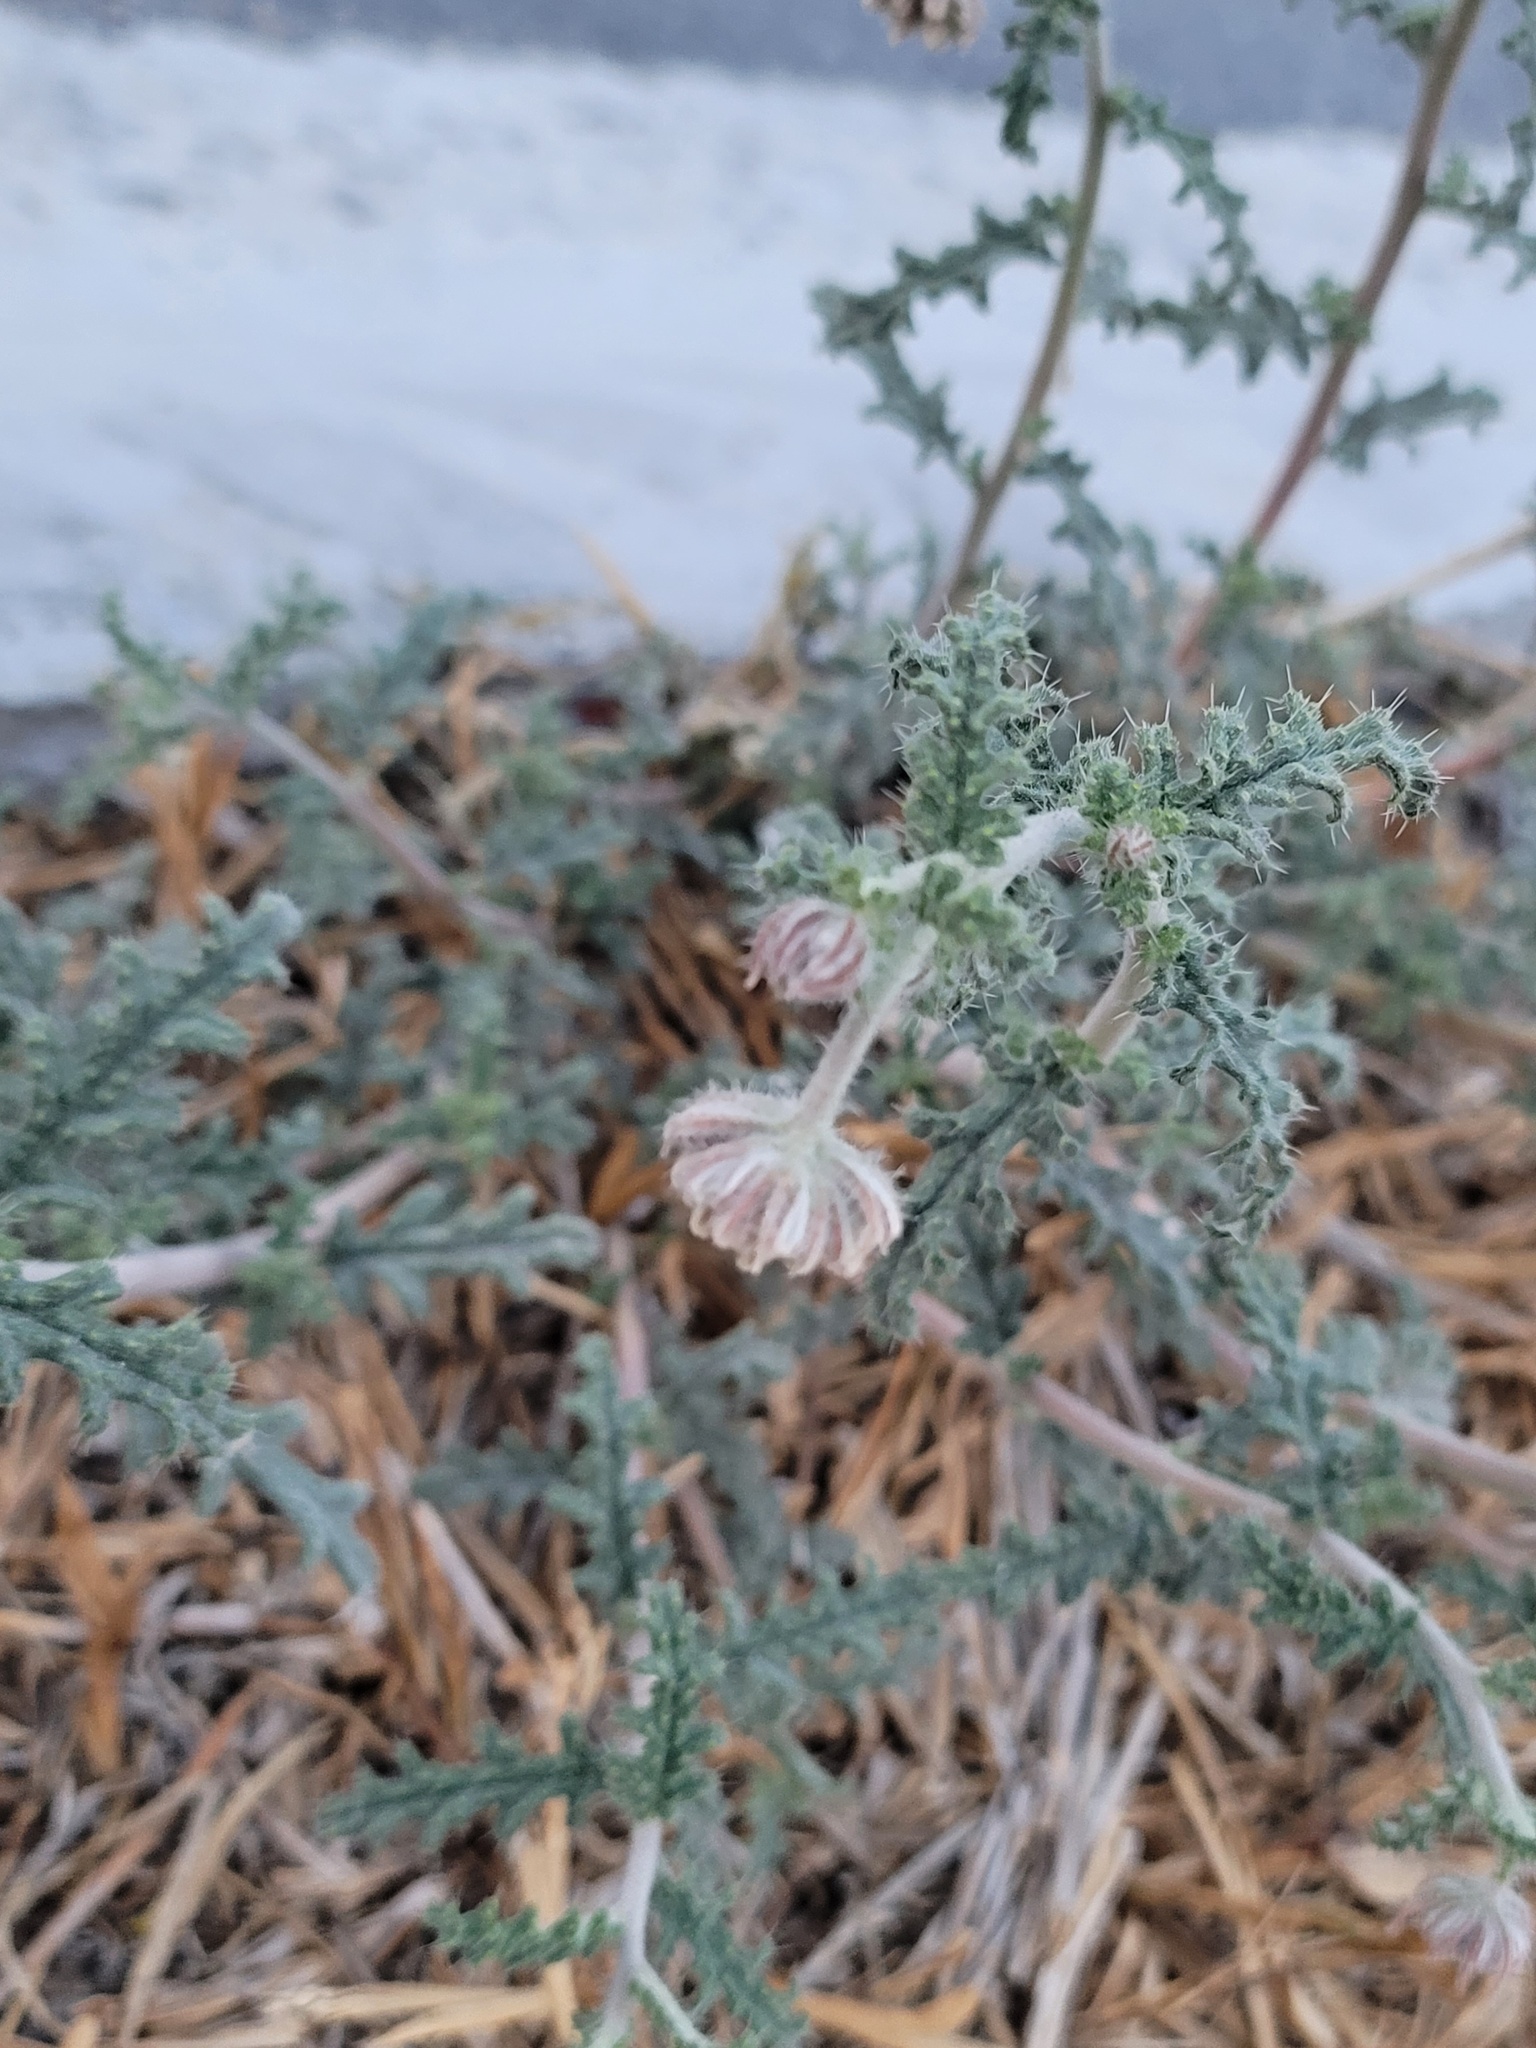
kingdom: Plantae
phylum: Tracheophyta
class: Magnoliopsida
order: Cornales
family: Loasaceae
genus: Cevallia
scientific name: Cevallia sinuata
